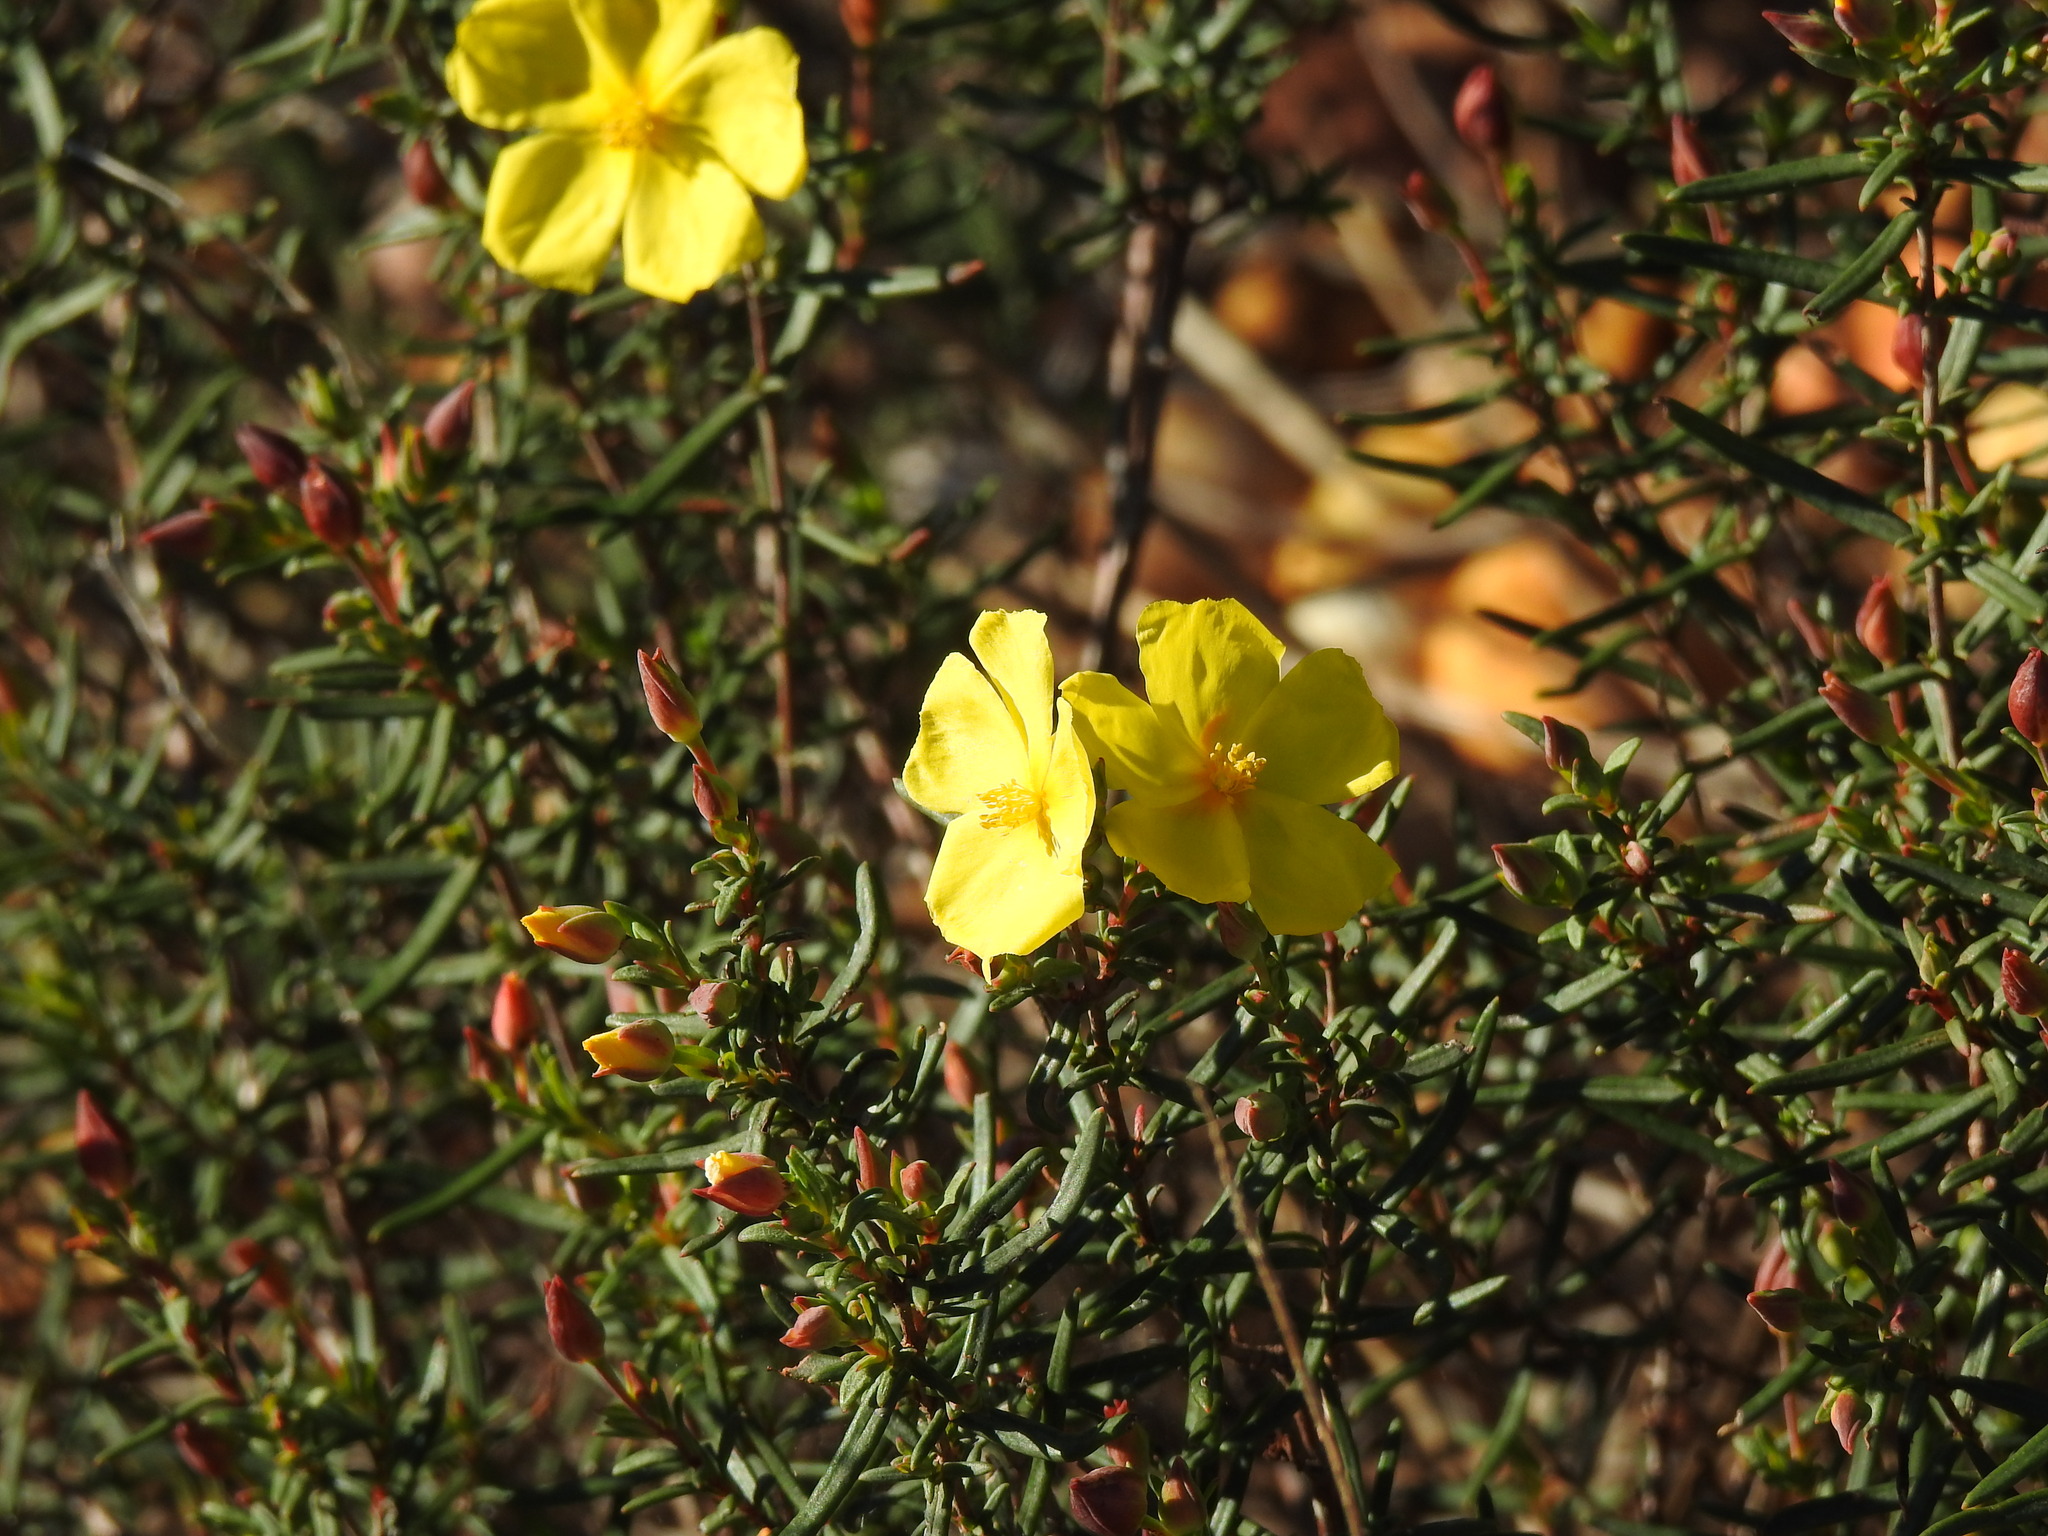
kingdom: Plantae
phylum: Tracheophyta
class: Magnoliopsida
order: Malvales
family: Cistaceae
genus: Halimium
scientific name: Halimium calycinum
